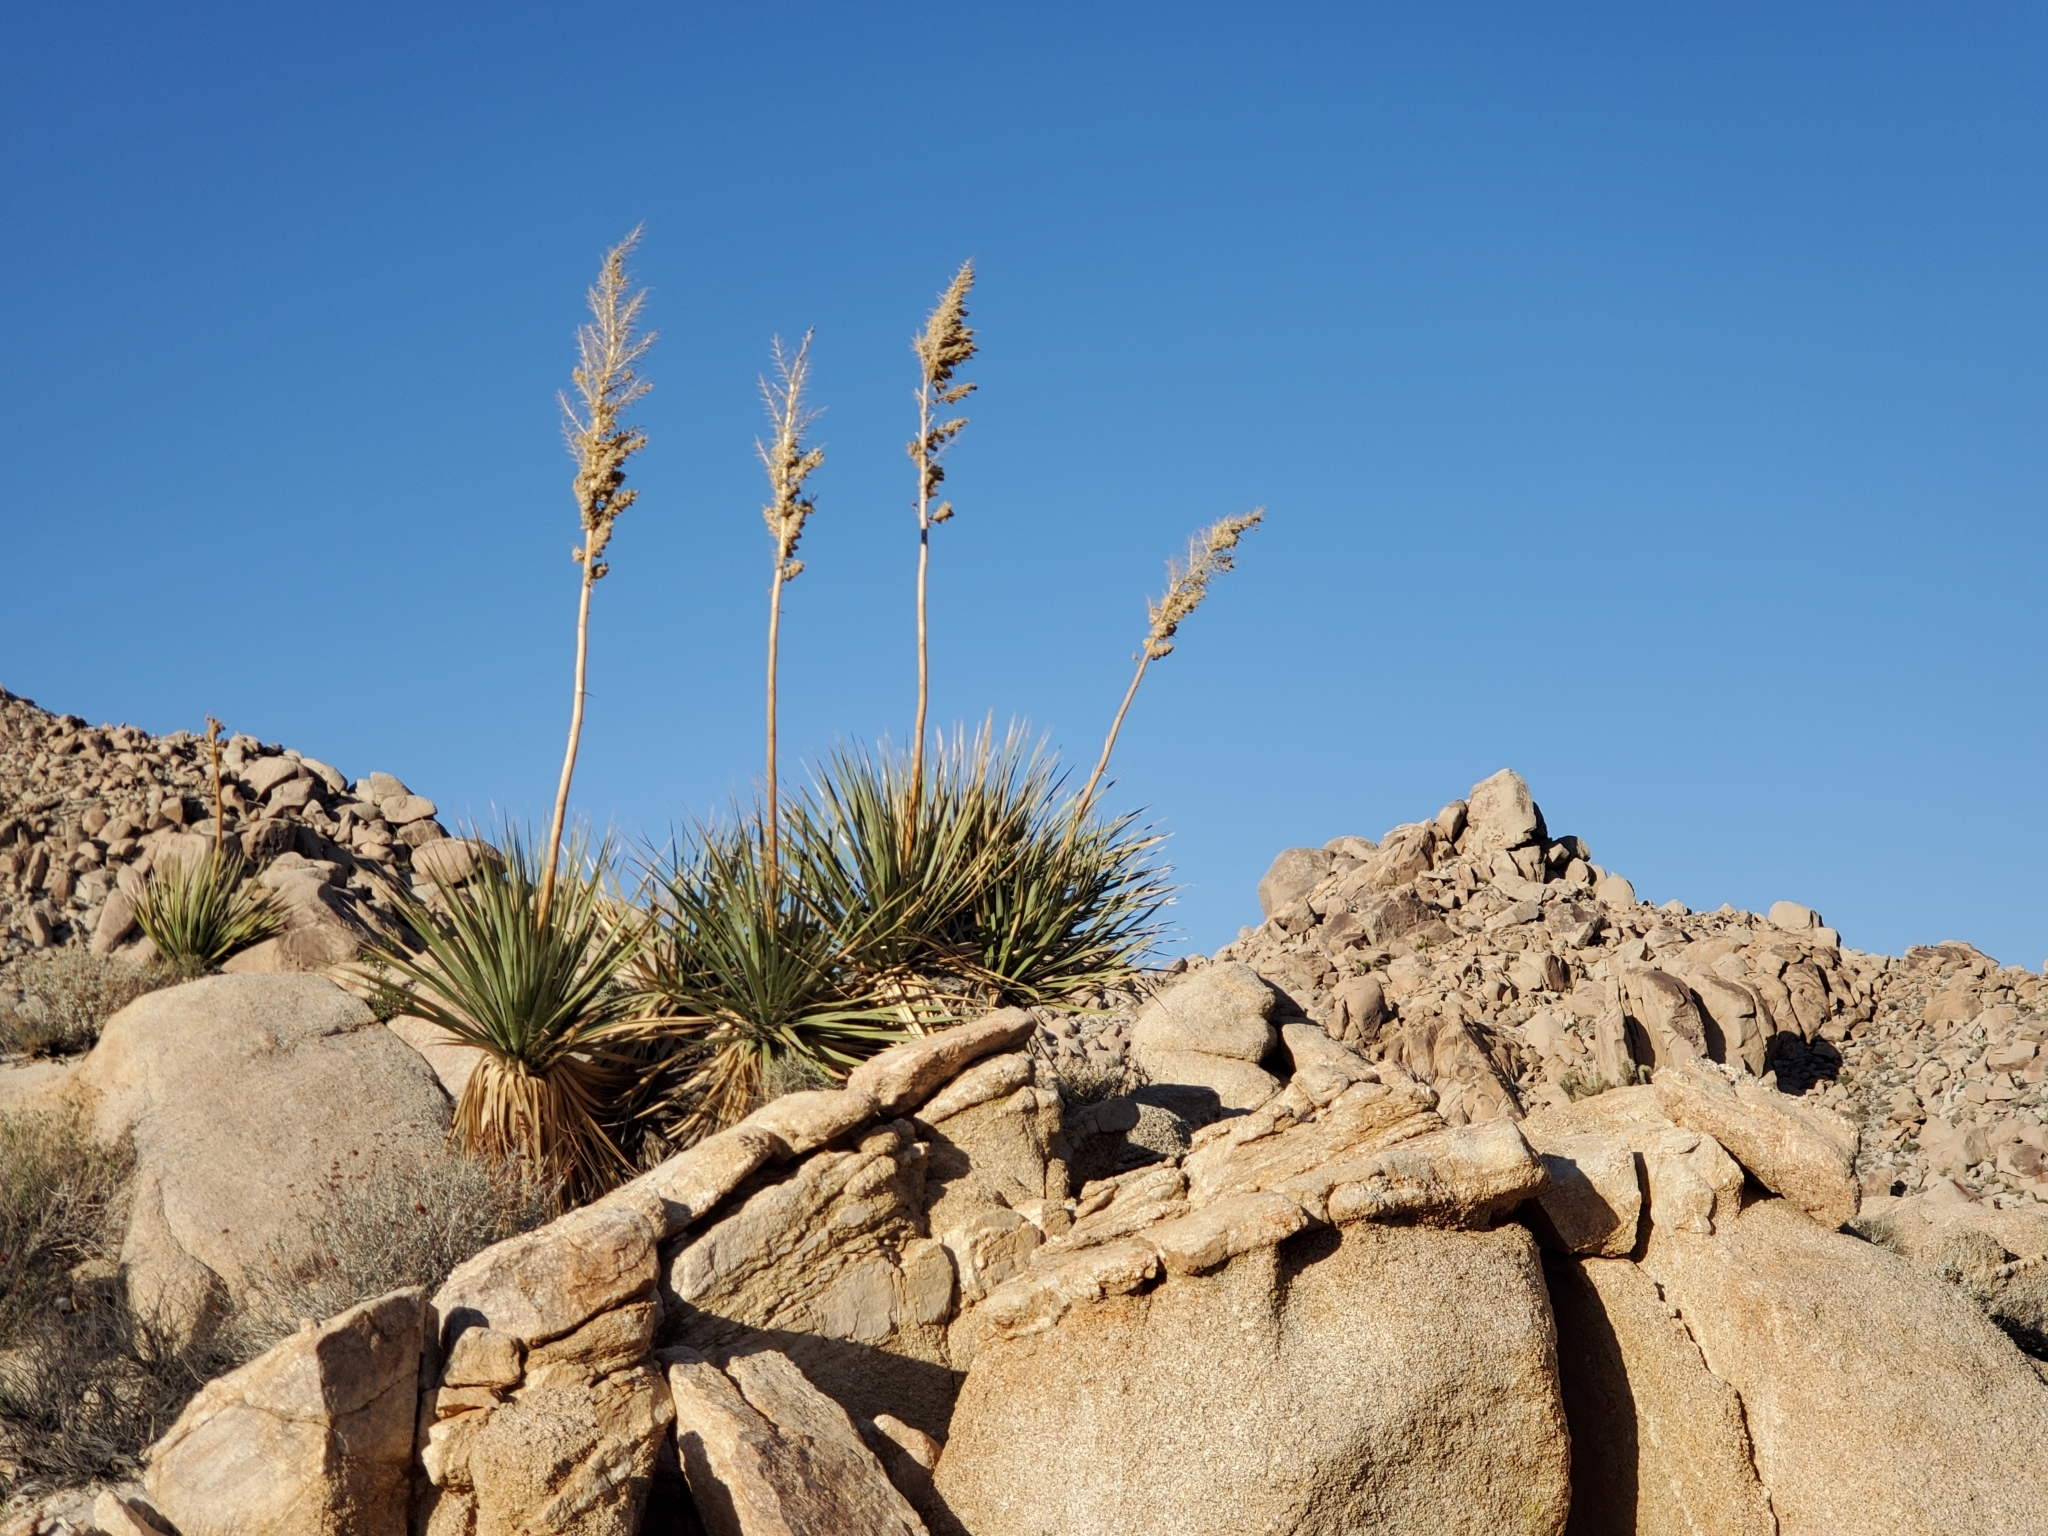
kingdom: Plantae
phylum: Tracheophyta
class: Liliopsida
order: Asparagales
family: Asparagaceae
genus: Nolina
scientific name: Nolina bigelovii
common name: Bigelow bear-grass
